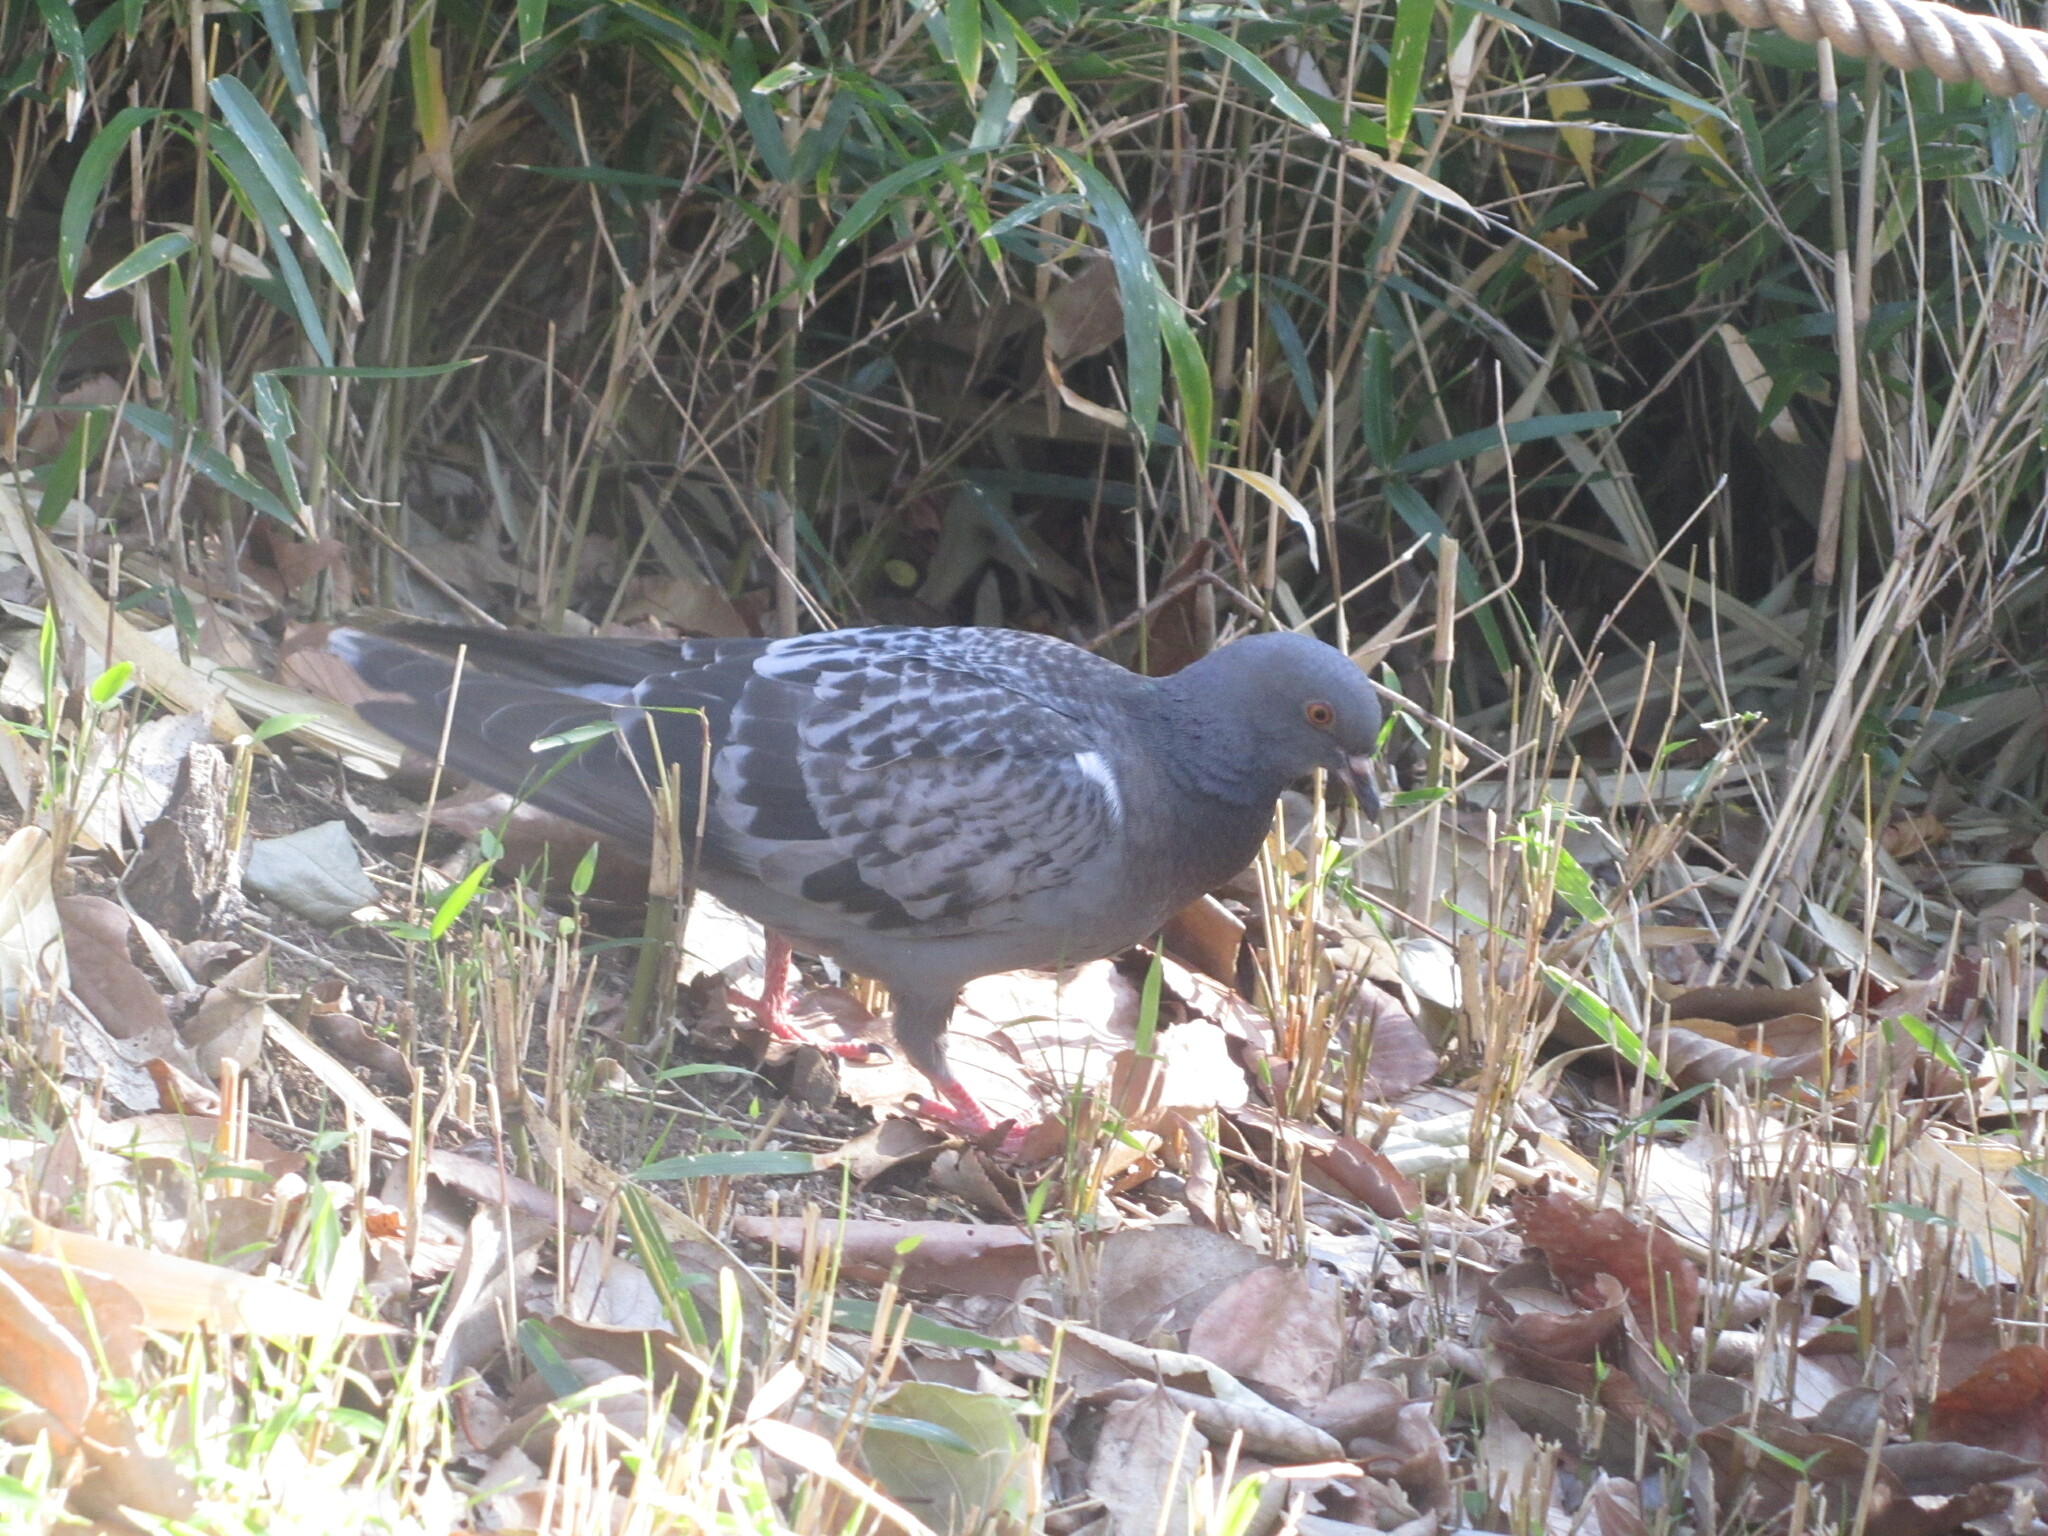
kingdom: Animalia
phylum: Chordata
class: Aves
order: Columbiformes
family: Columbidae
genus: Columba
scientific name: Columba livia
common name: Rock pigeon
